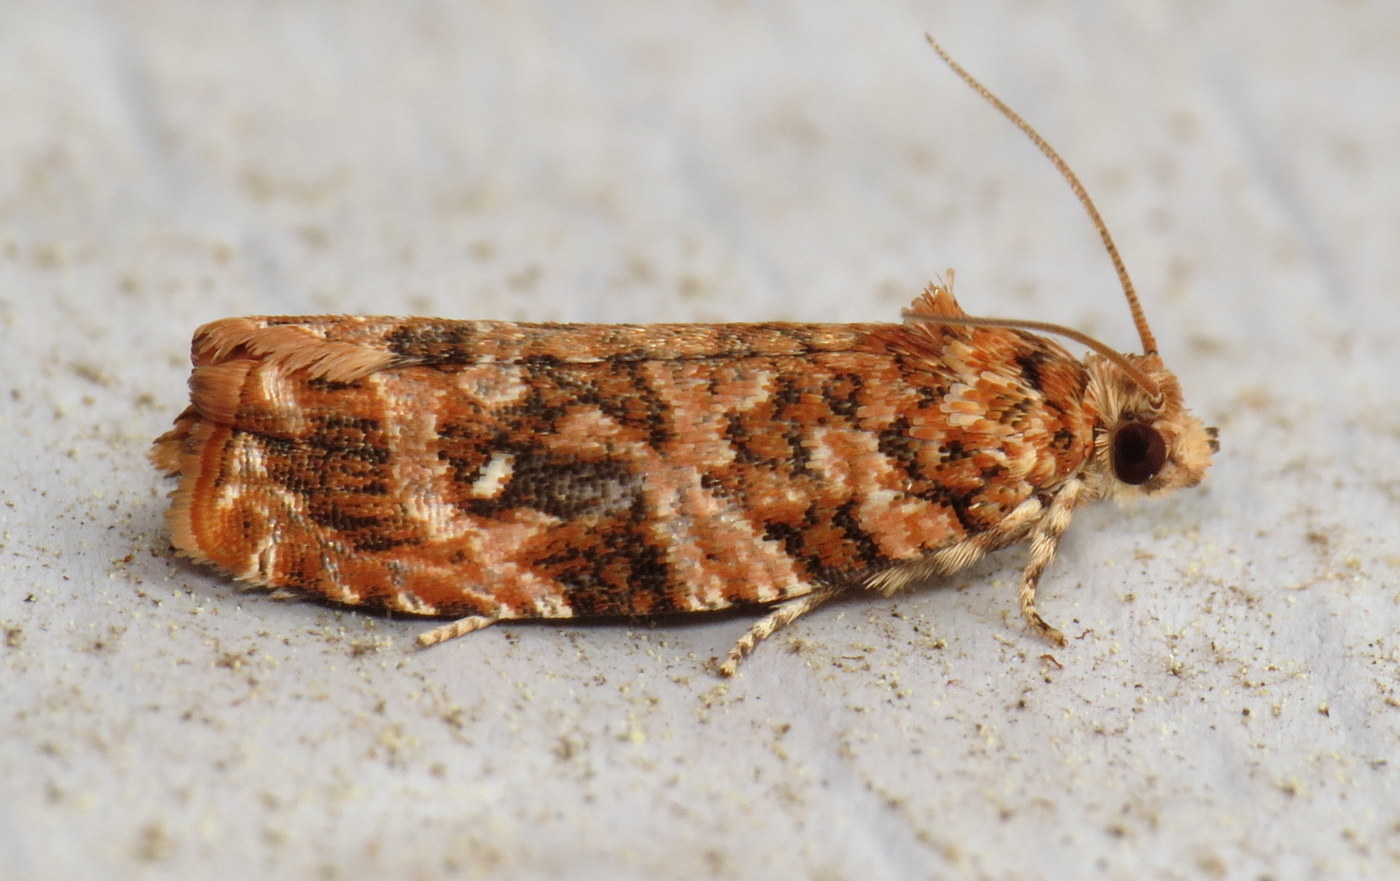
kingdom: Animalia
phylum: Arthropoda
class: Insecta
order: Lepidoptera
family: Tortricidae
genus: Phaecasiophora
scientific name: Phaecasiophora niveiguttana
